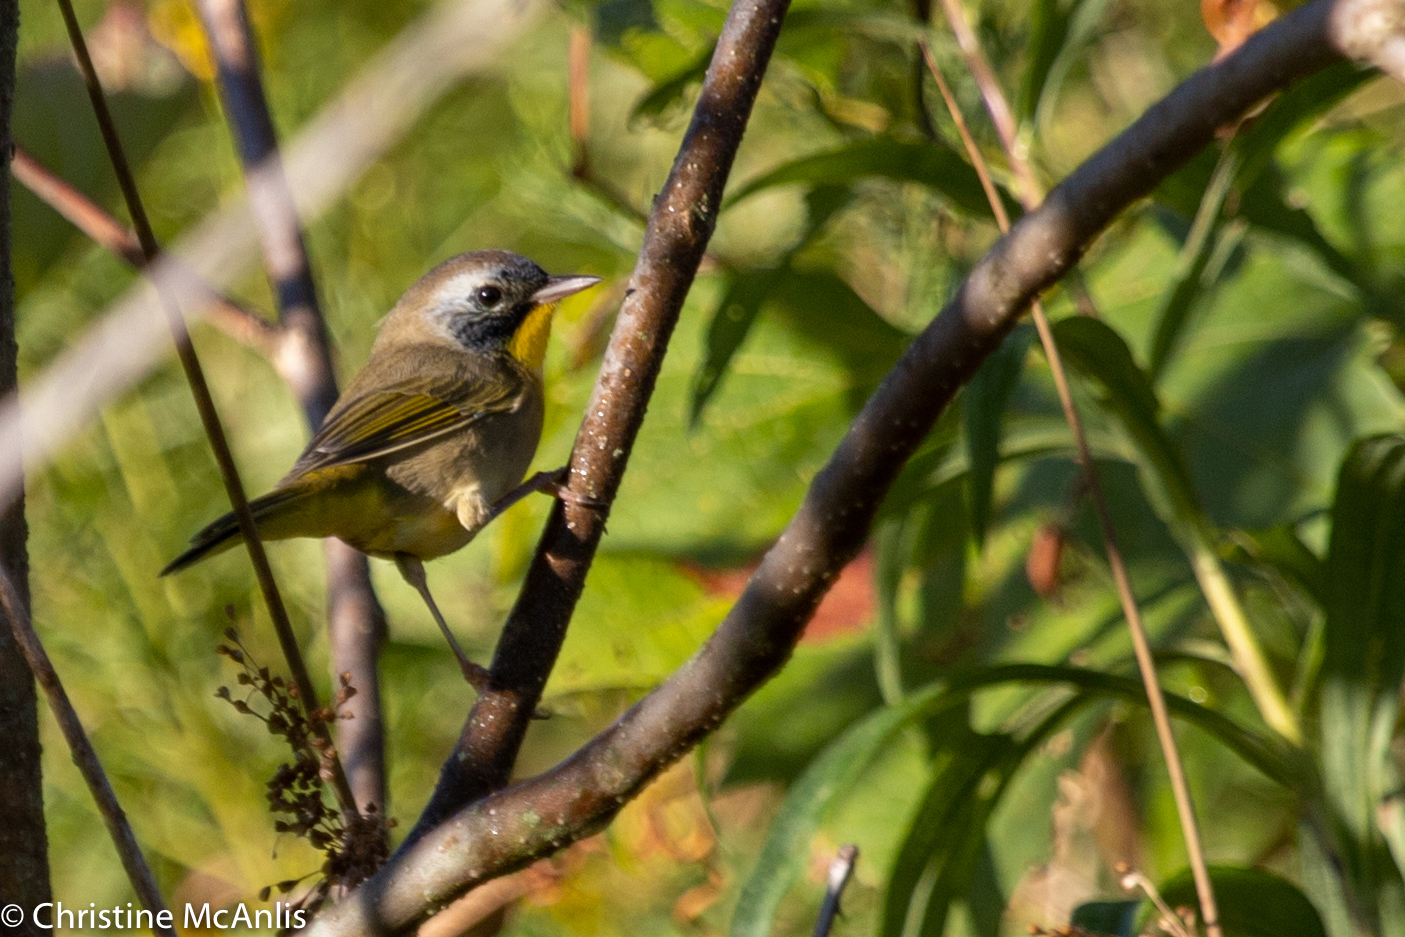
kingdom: Animalia
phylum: Chordata
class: Aves
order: Passeriformes
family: Parulidae
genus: Geothlypis
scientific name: Geothlypis trichas
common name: Common yellowthroat
